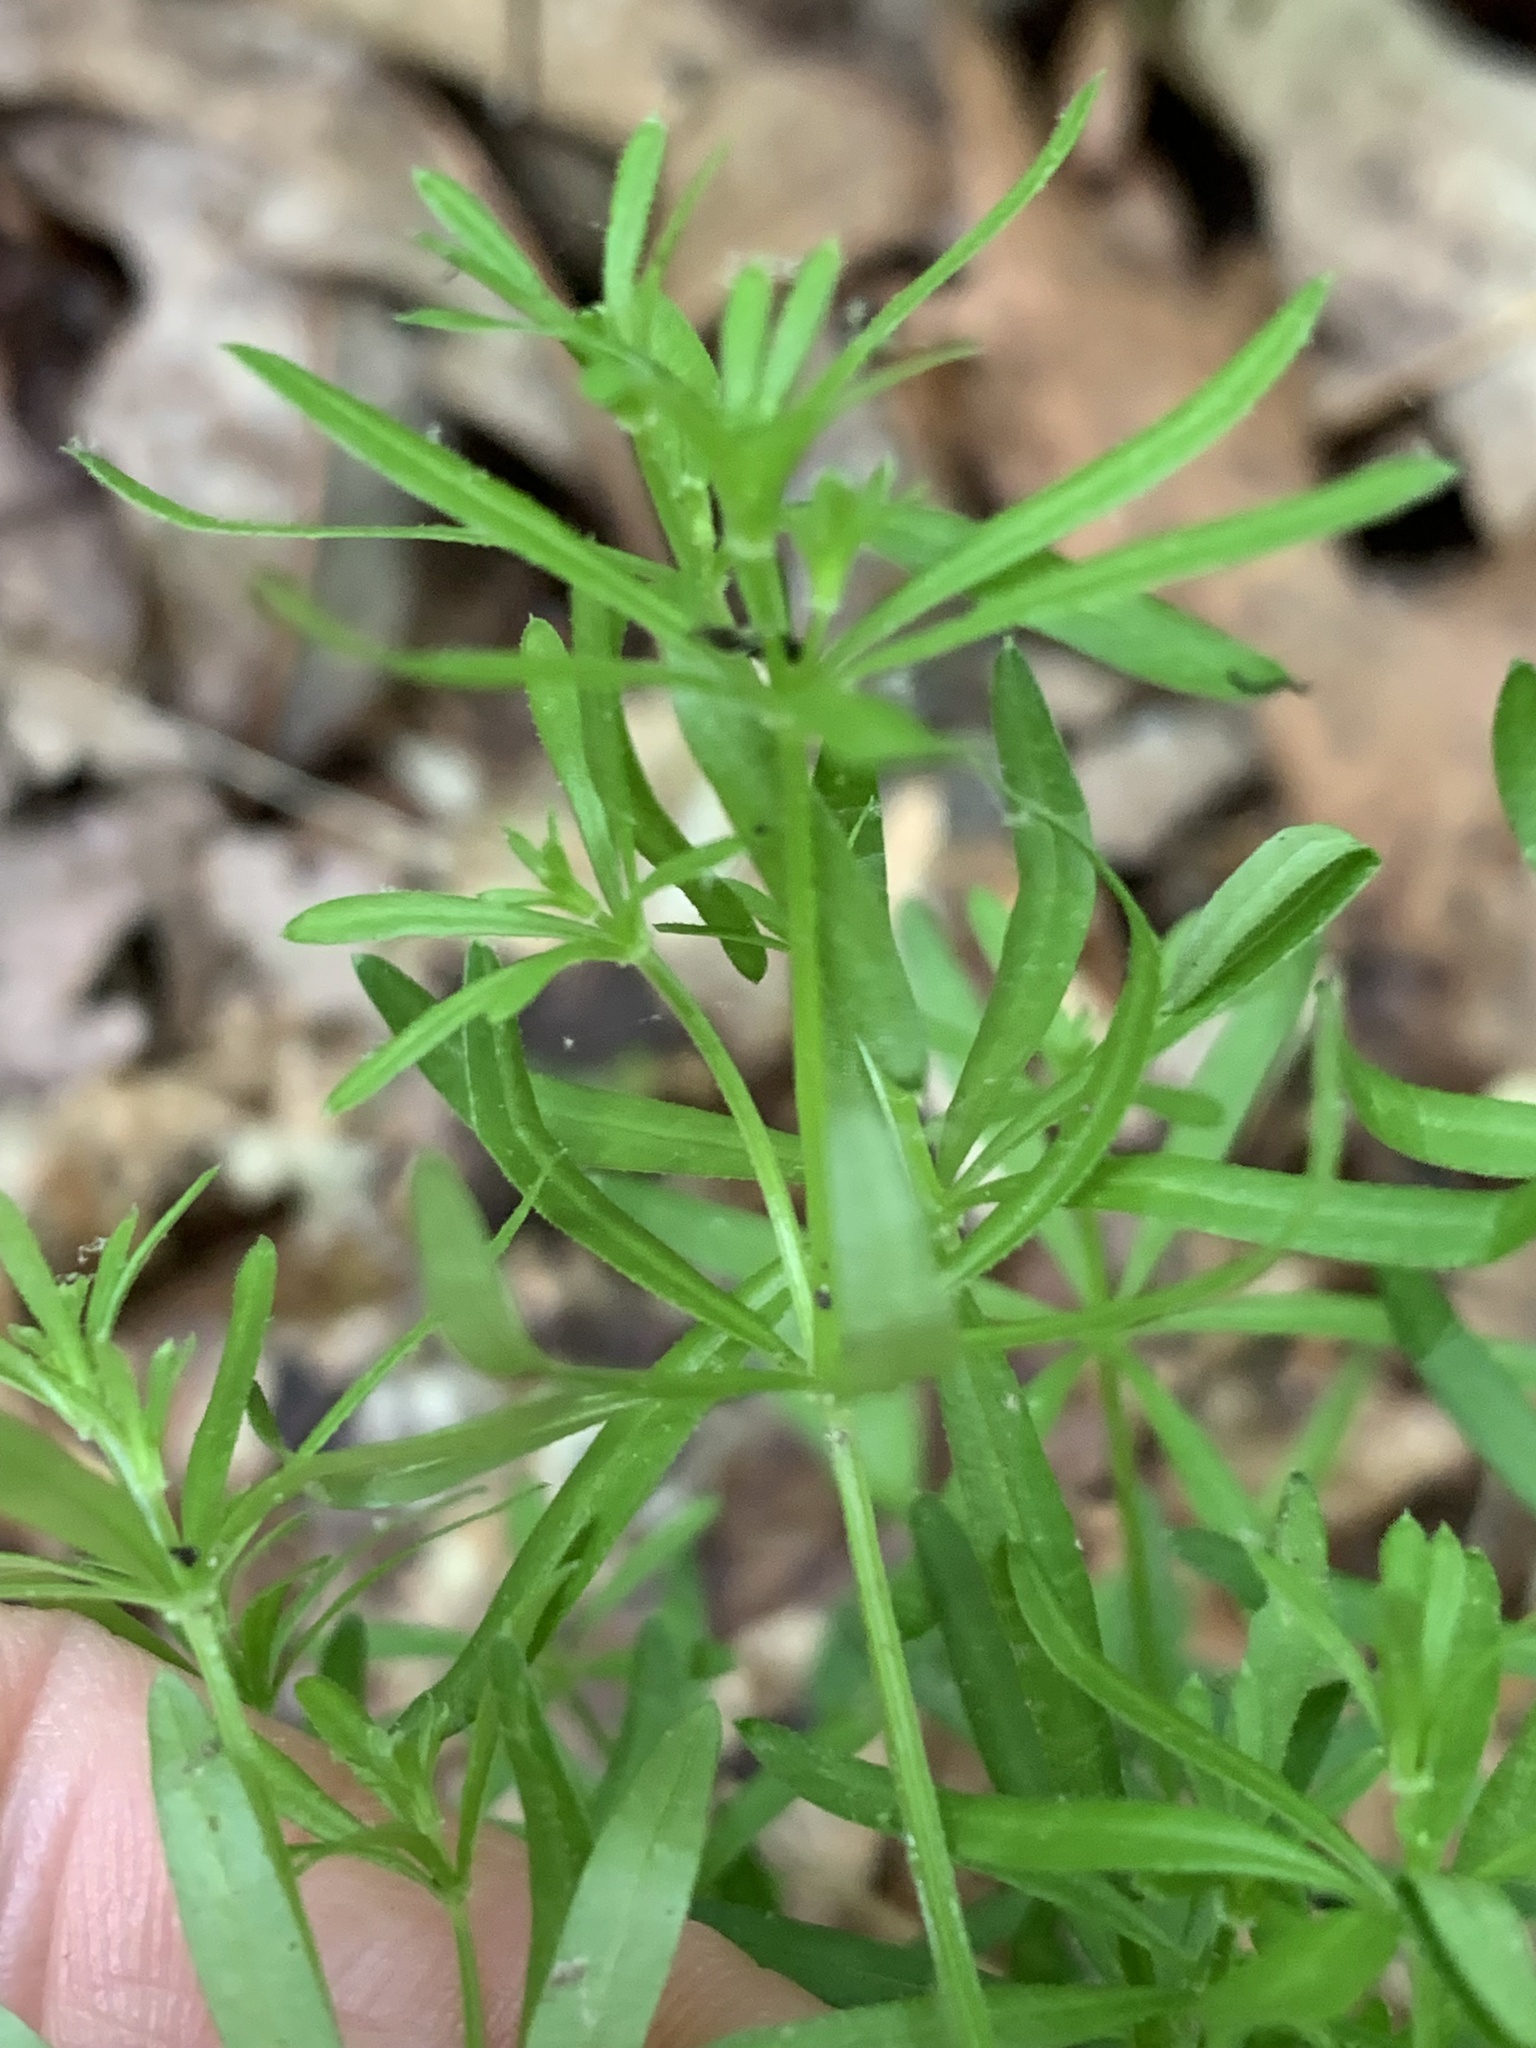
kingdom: Plantae
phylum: Tracheophyta
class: Magnoliopsida
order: Gentianales
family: Rubiaceae
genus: Galium
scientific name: Galium concinnum
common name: Shining bedstraw
